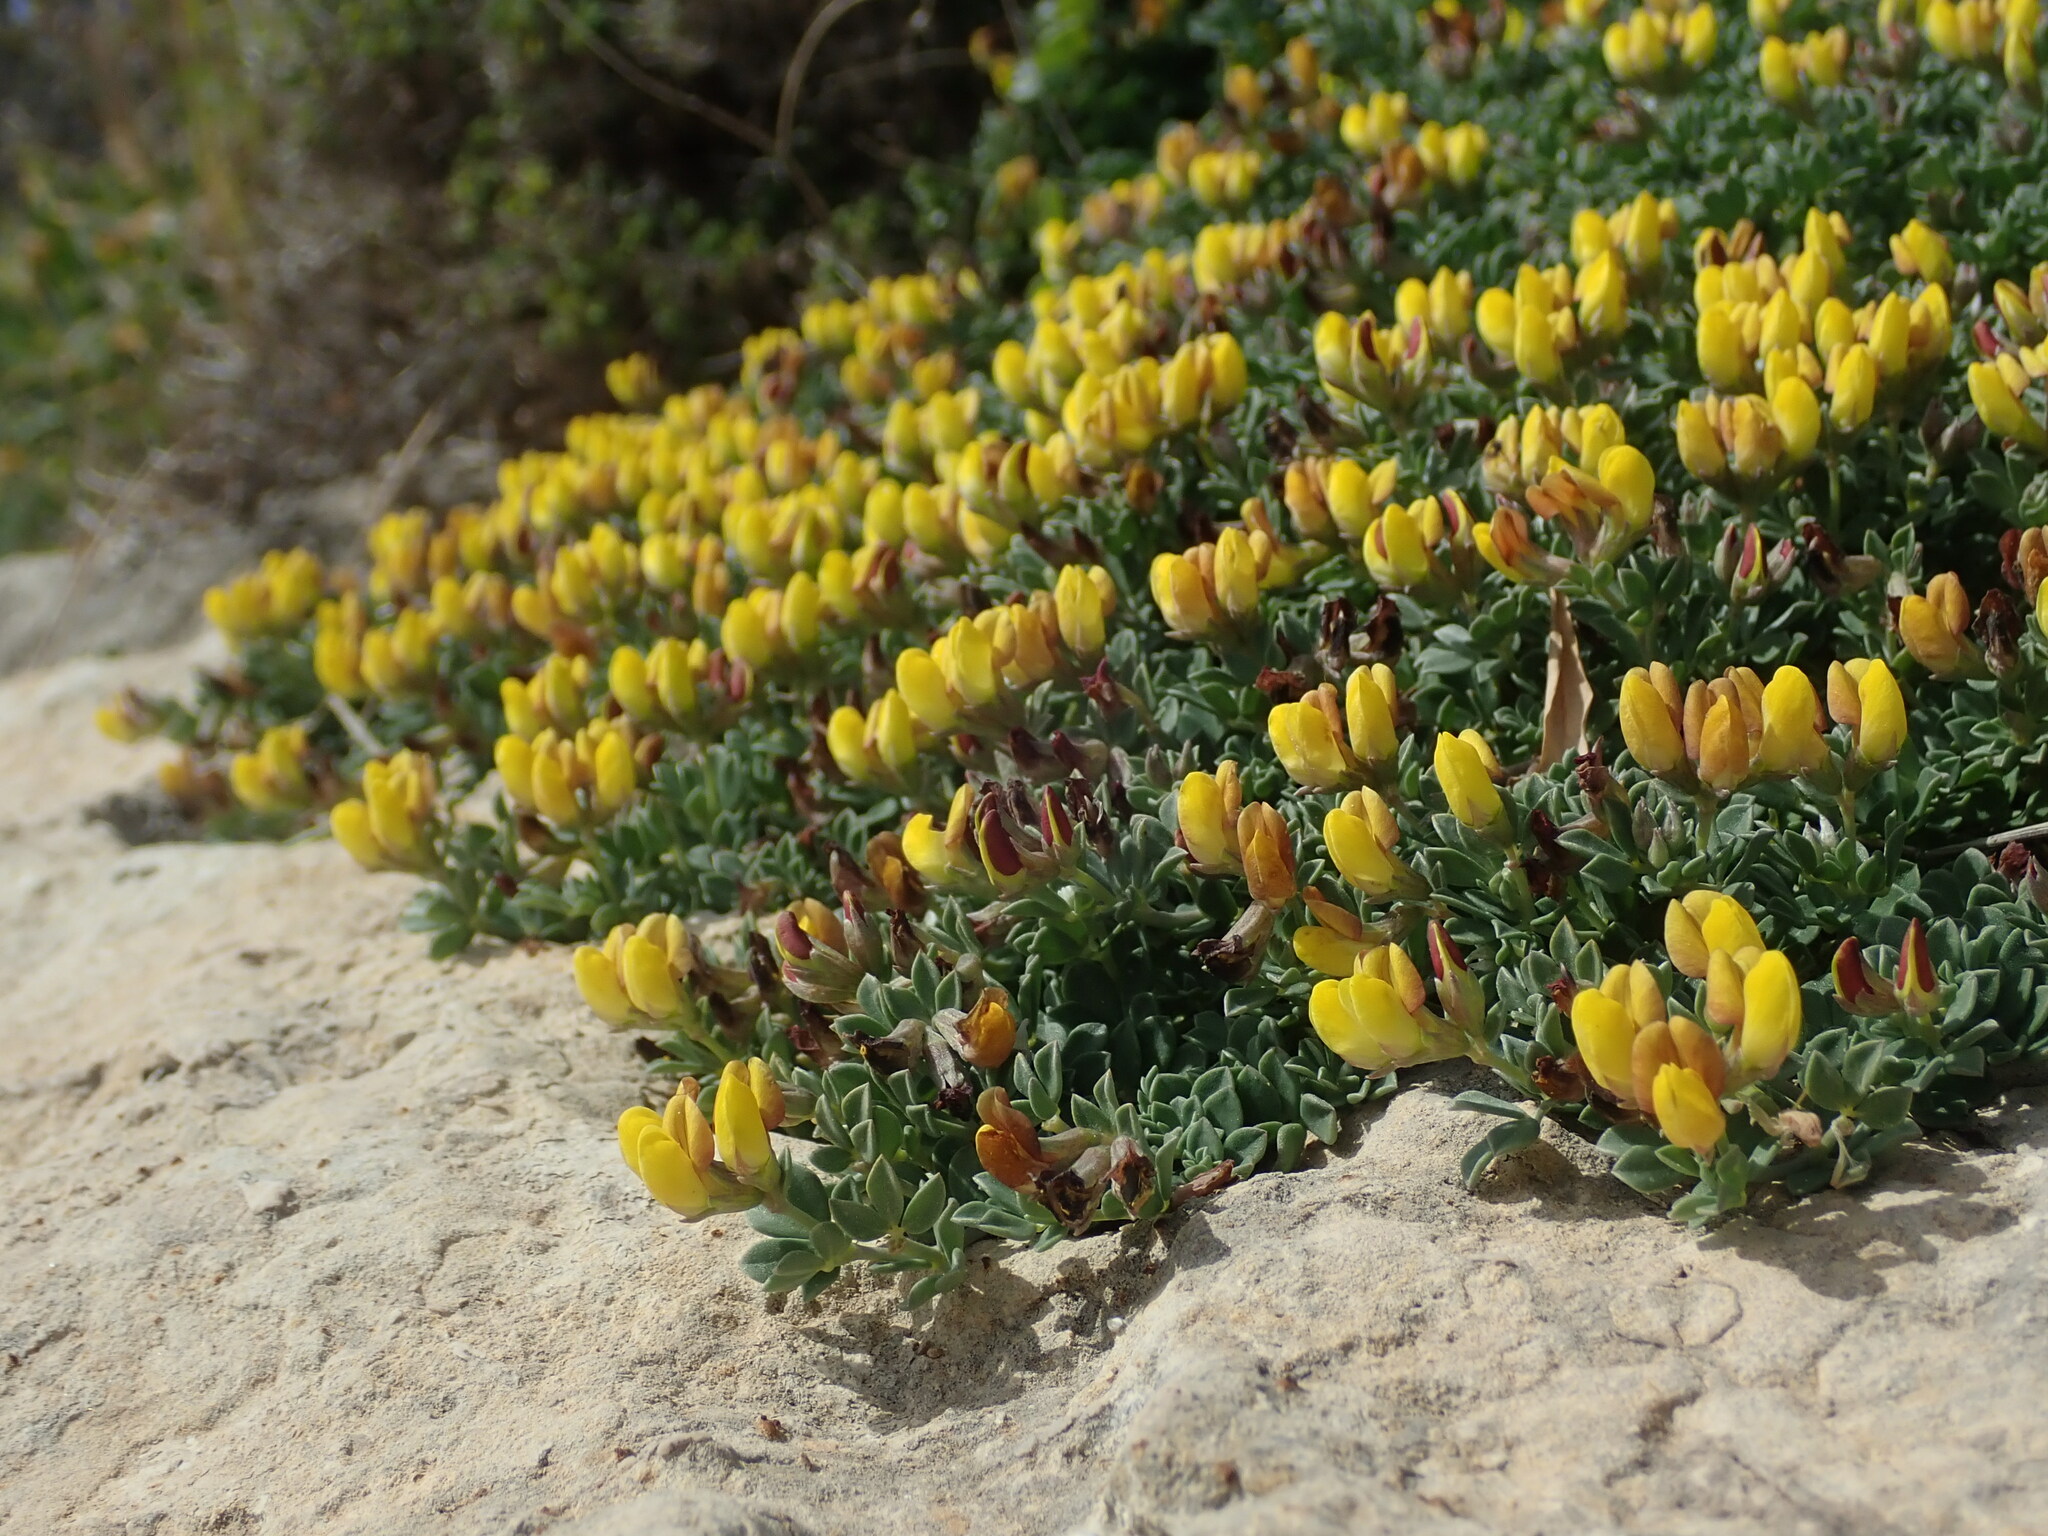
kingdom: Plantae
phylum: Tracheophyta
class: Magnoliopsida
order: Fabales
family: Fabaceae
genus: Lotus
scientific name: Lotus cytisoides
